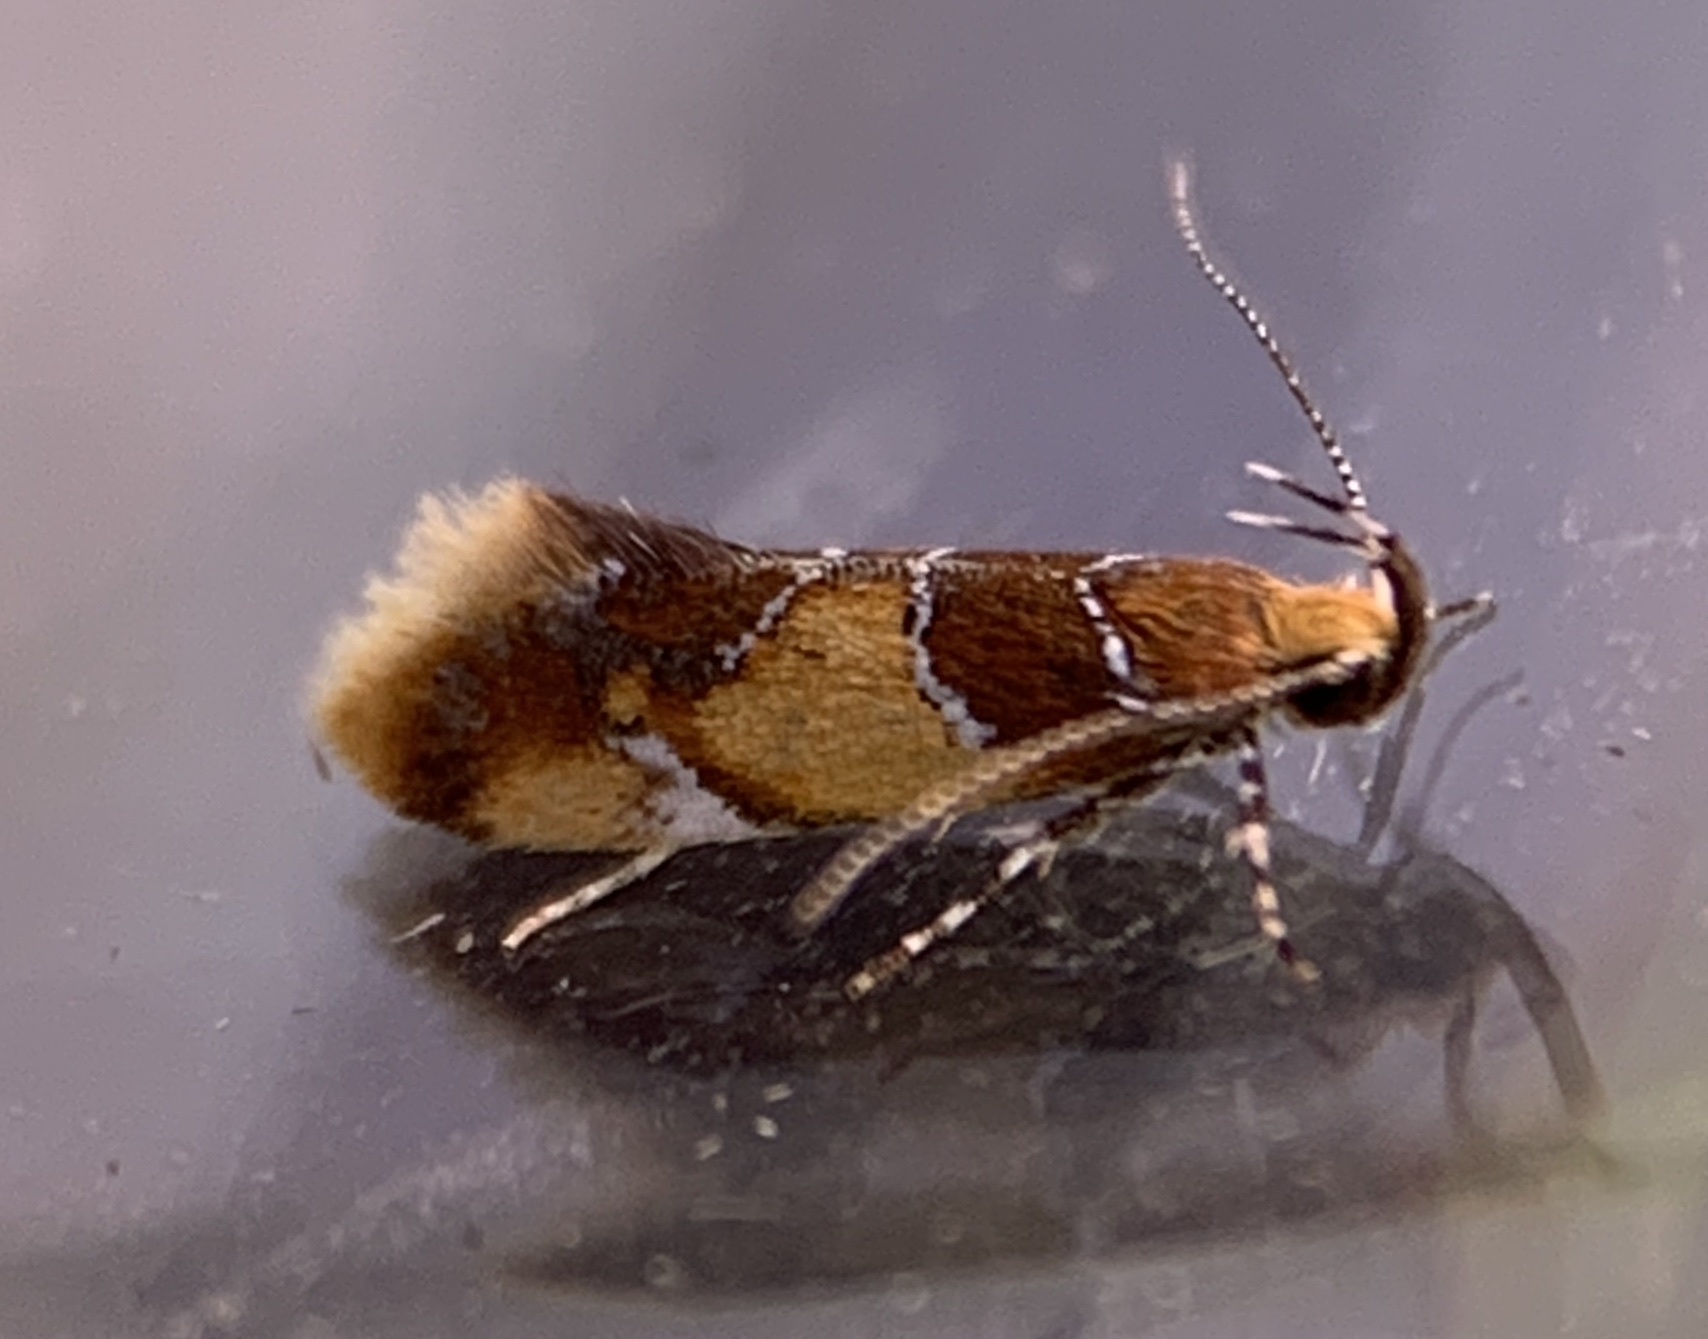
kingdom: Animalia
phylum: Arthropoda
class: Insecta
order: Lepidoptera
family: Oecophoridae
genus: Callima
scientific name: Callima argenticinctella
